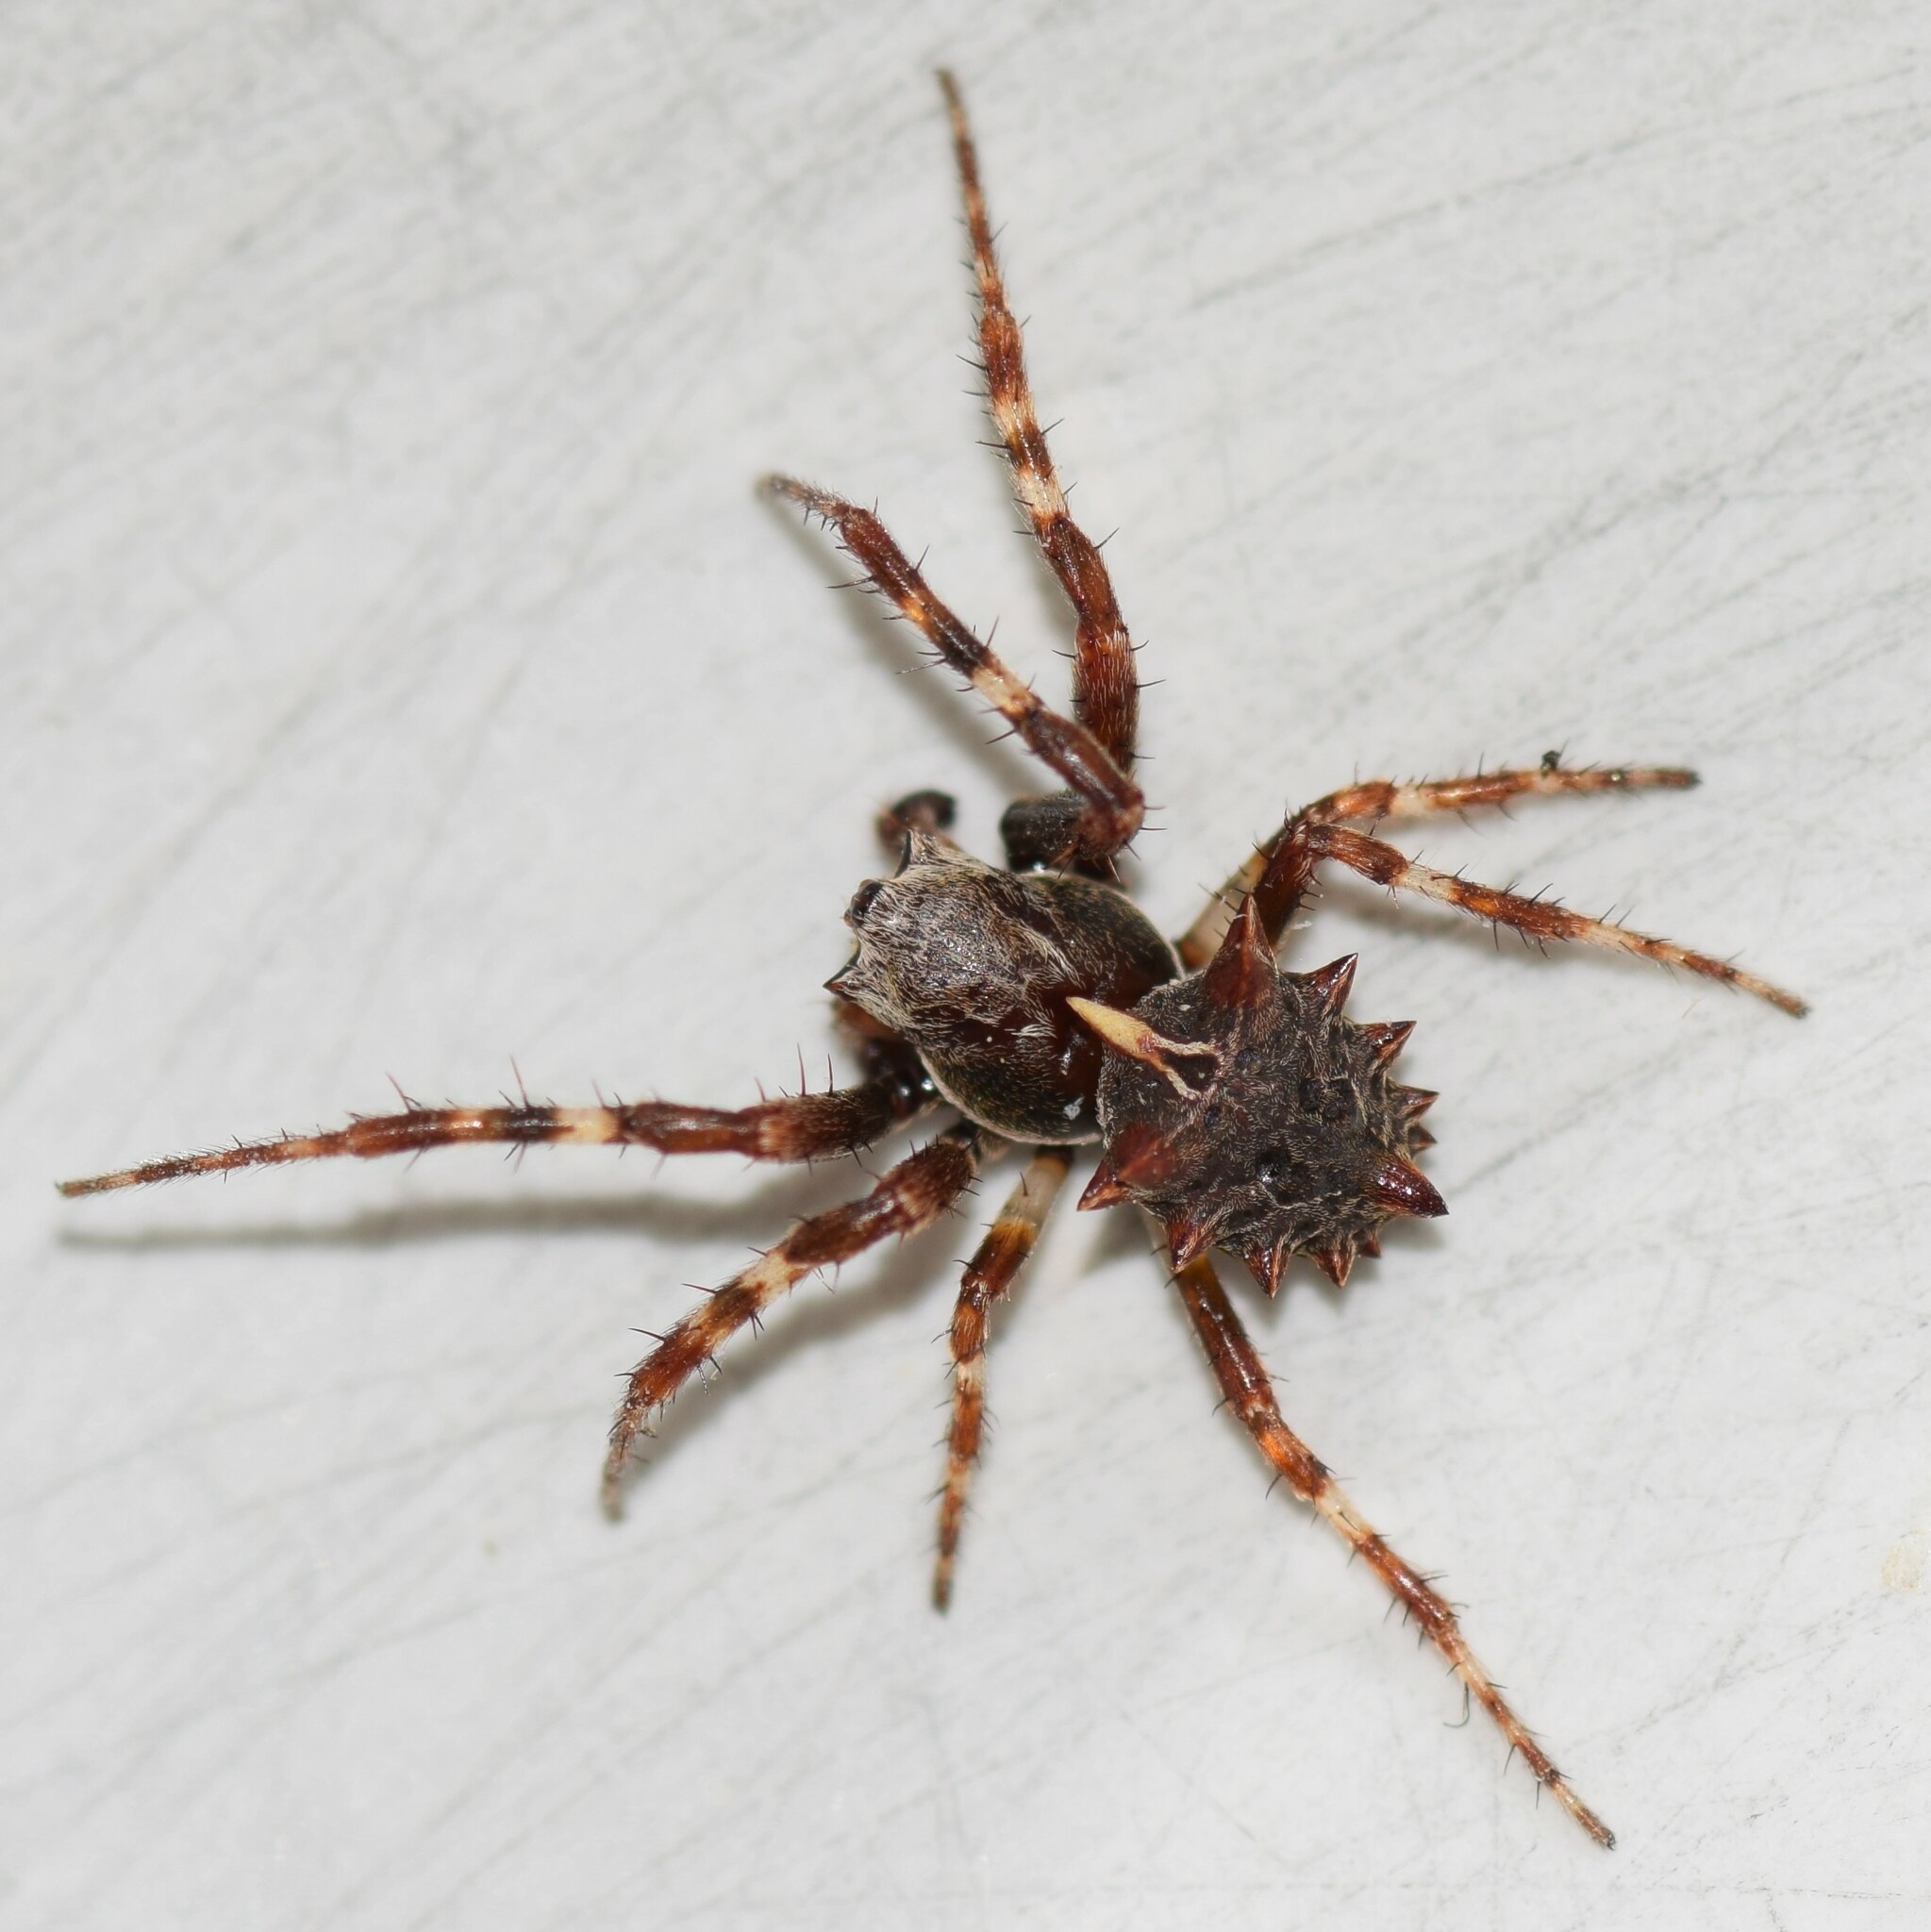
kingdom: Animalia
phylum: Arthropoda
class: Arachnida
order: Araneae
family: Araneidae
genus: Acanthepeira
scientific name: Acanthepeira stellata
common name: Starbellied orbweaver
